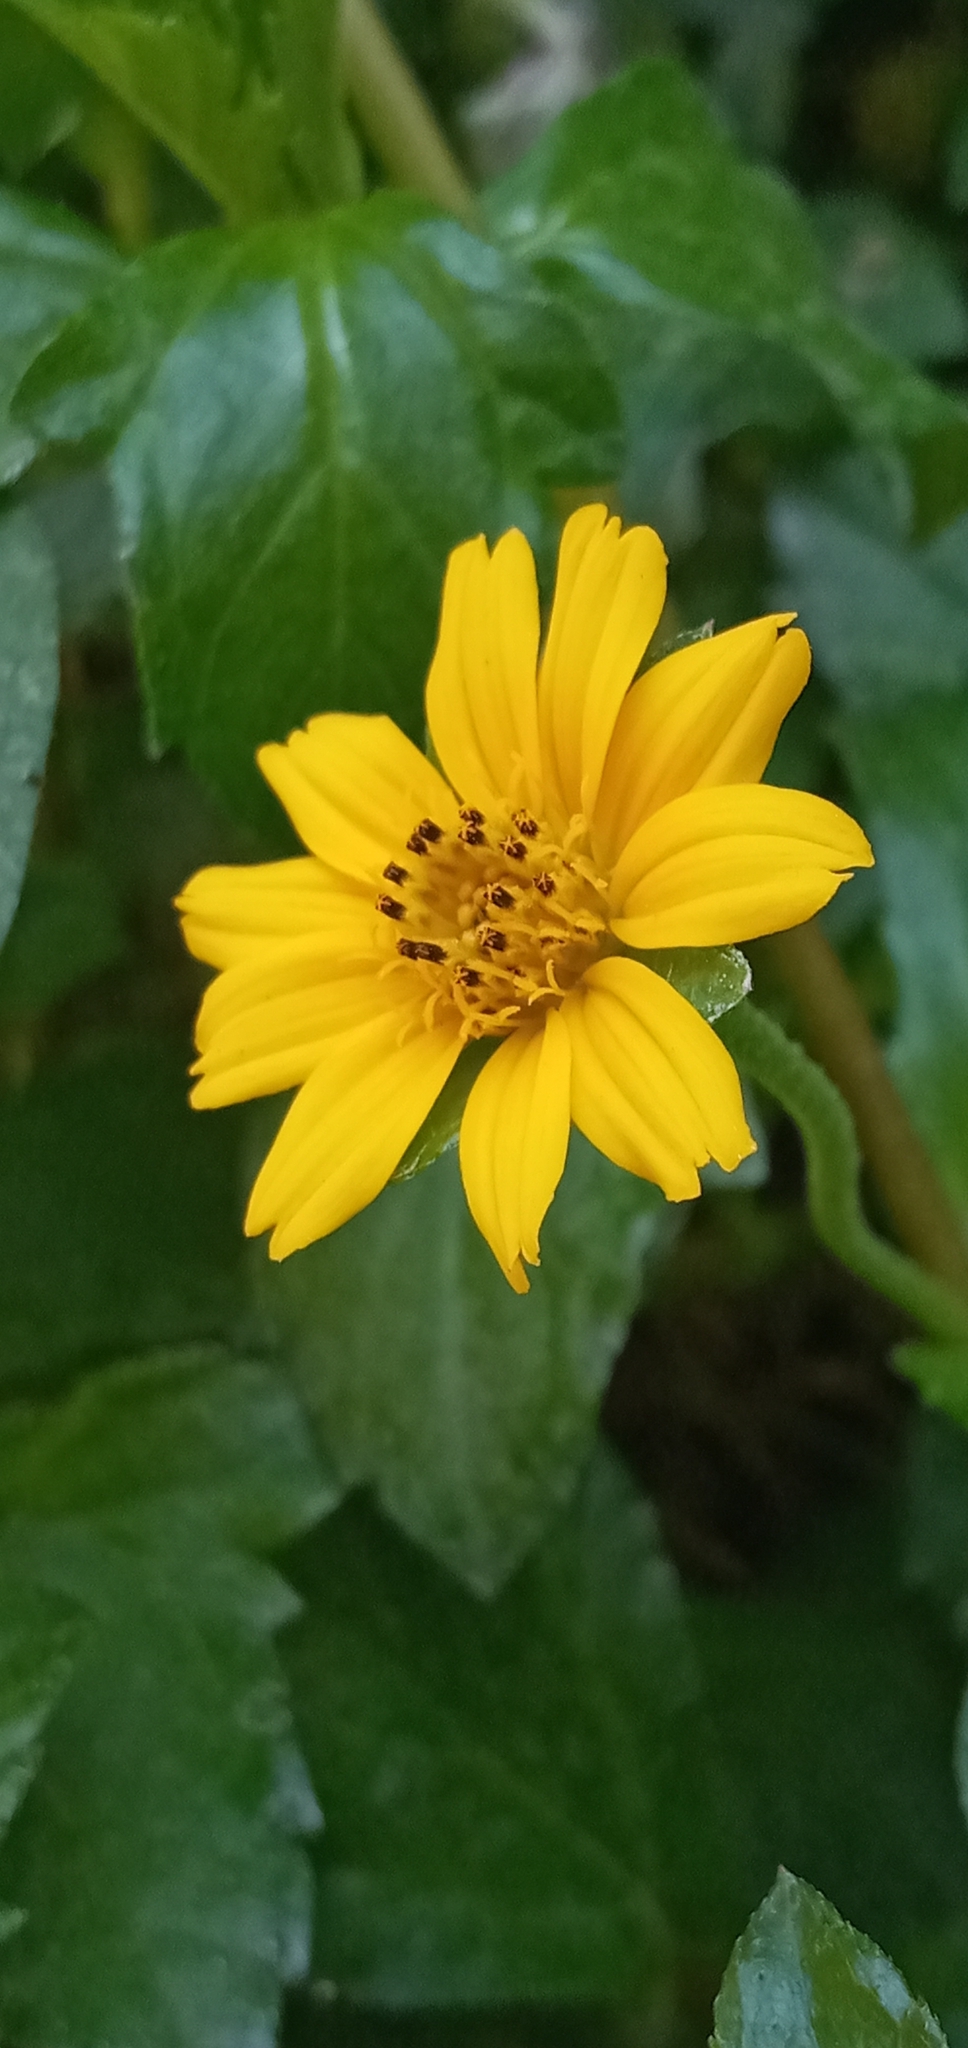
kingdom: Plantae
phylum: Tracheophyta
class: Magnoliopsida
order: Asterales
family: Asteraceae
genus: Sphagneticola
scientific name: Sphagneticola trilobata
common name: Bay biscayne creeping-oxeye
